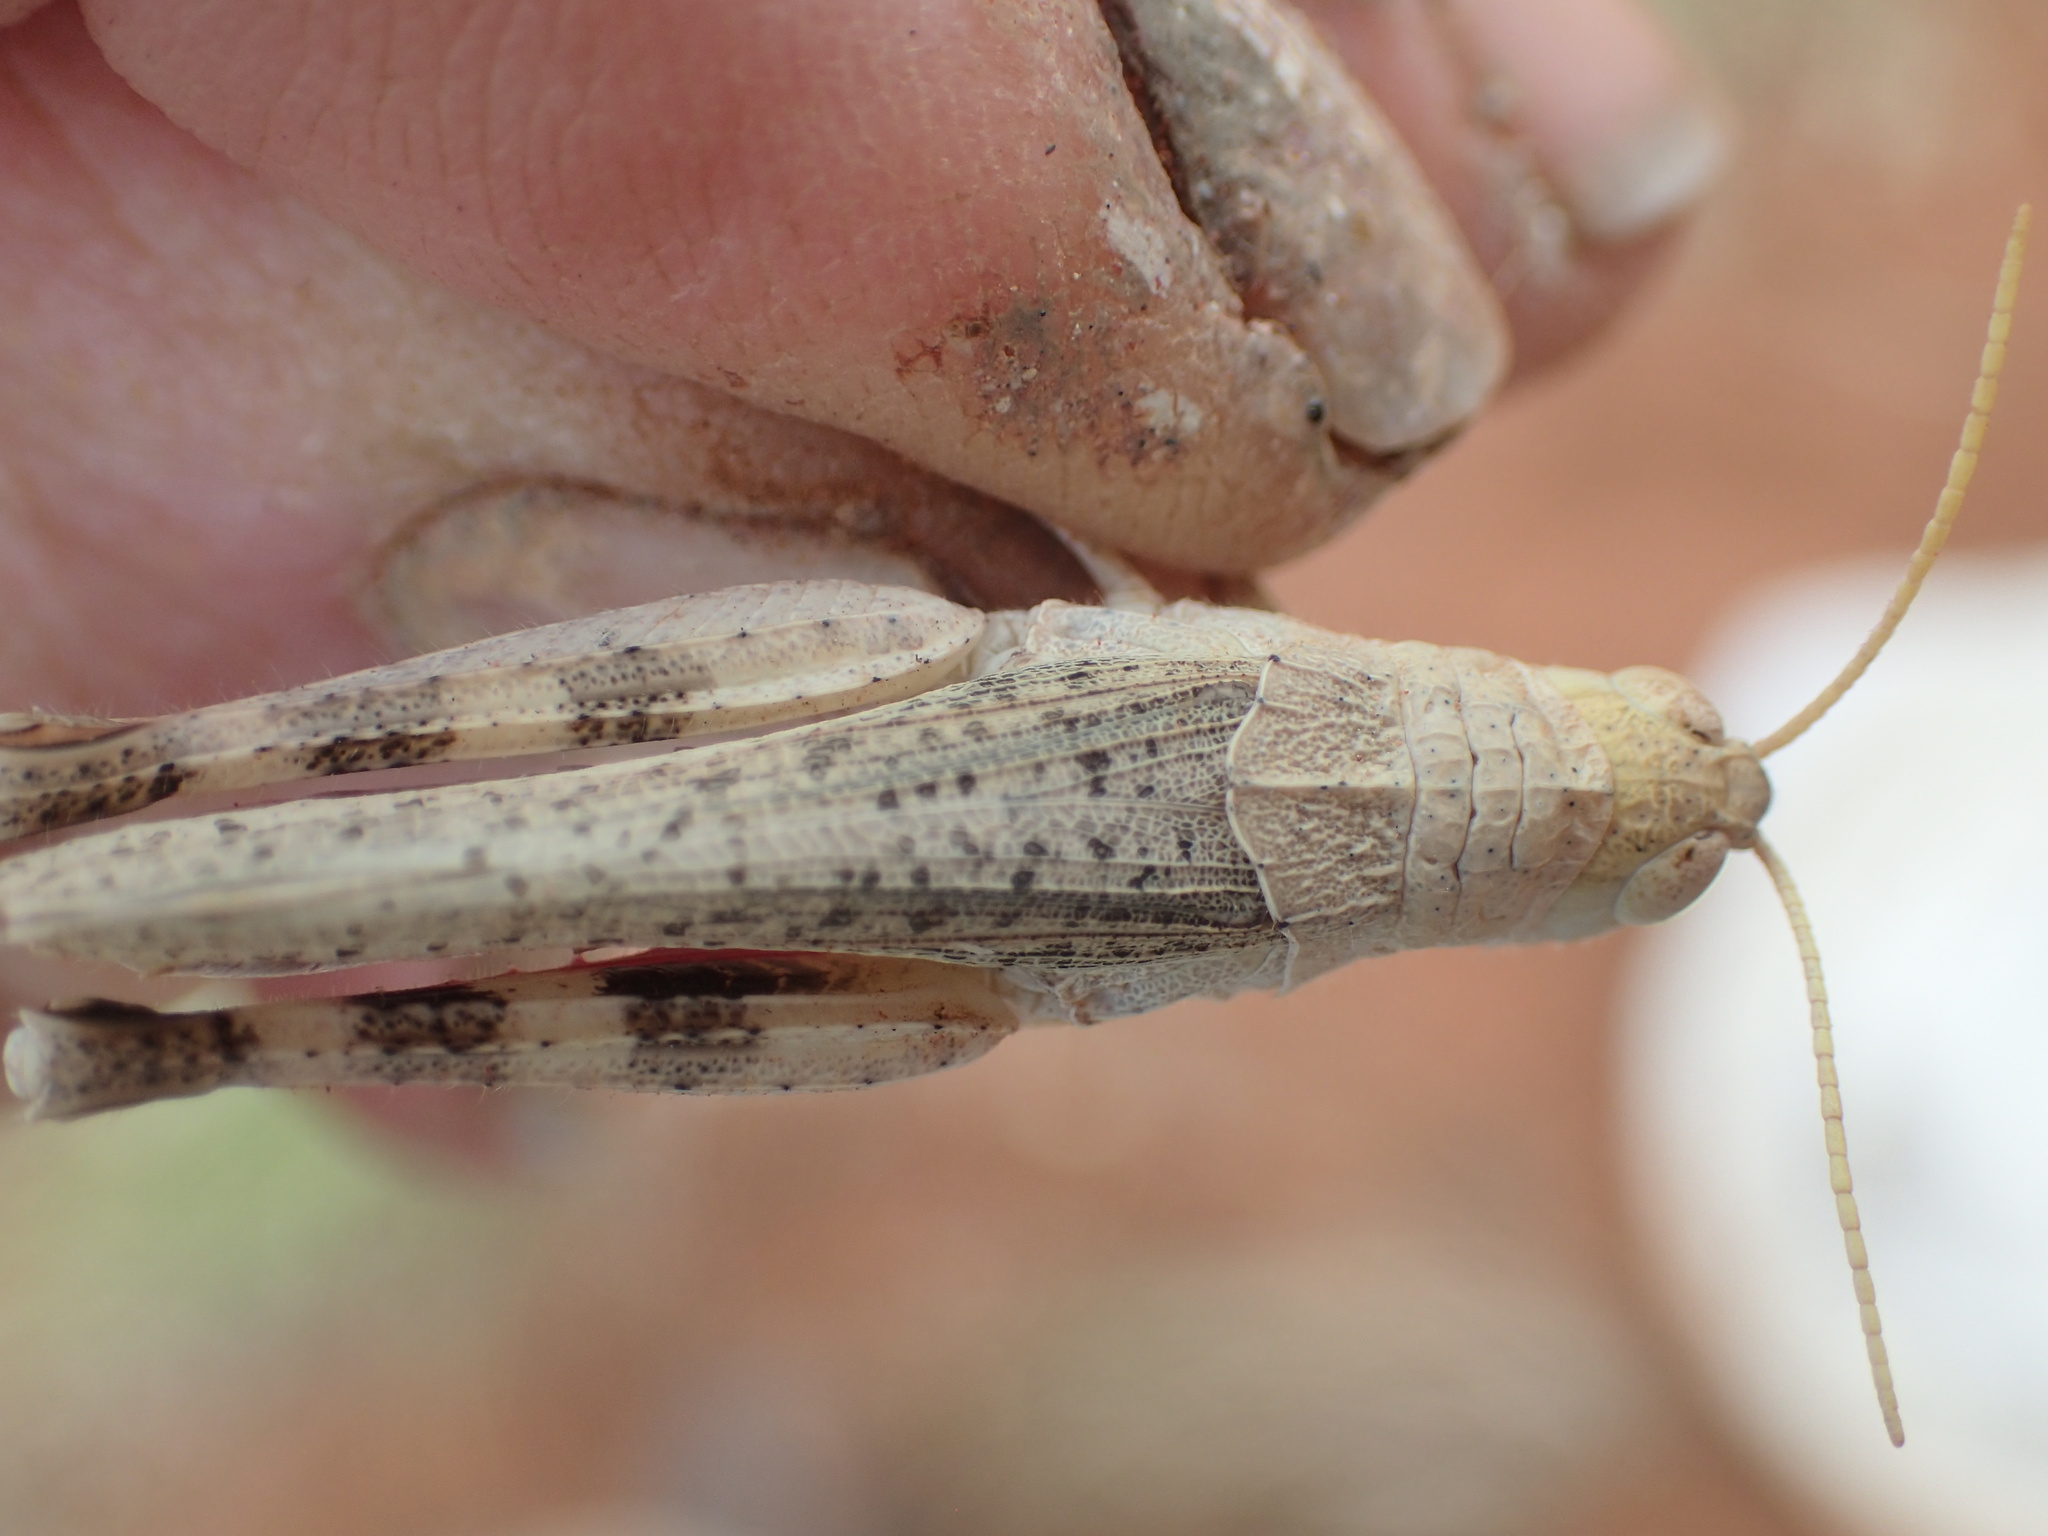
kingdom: Animalia
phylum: Arthropoda
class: Insecta
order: Orthoptera
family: Acrididae
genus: Peakesia
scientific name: Peakesia
